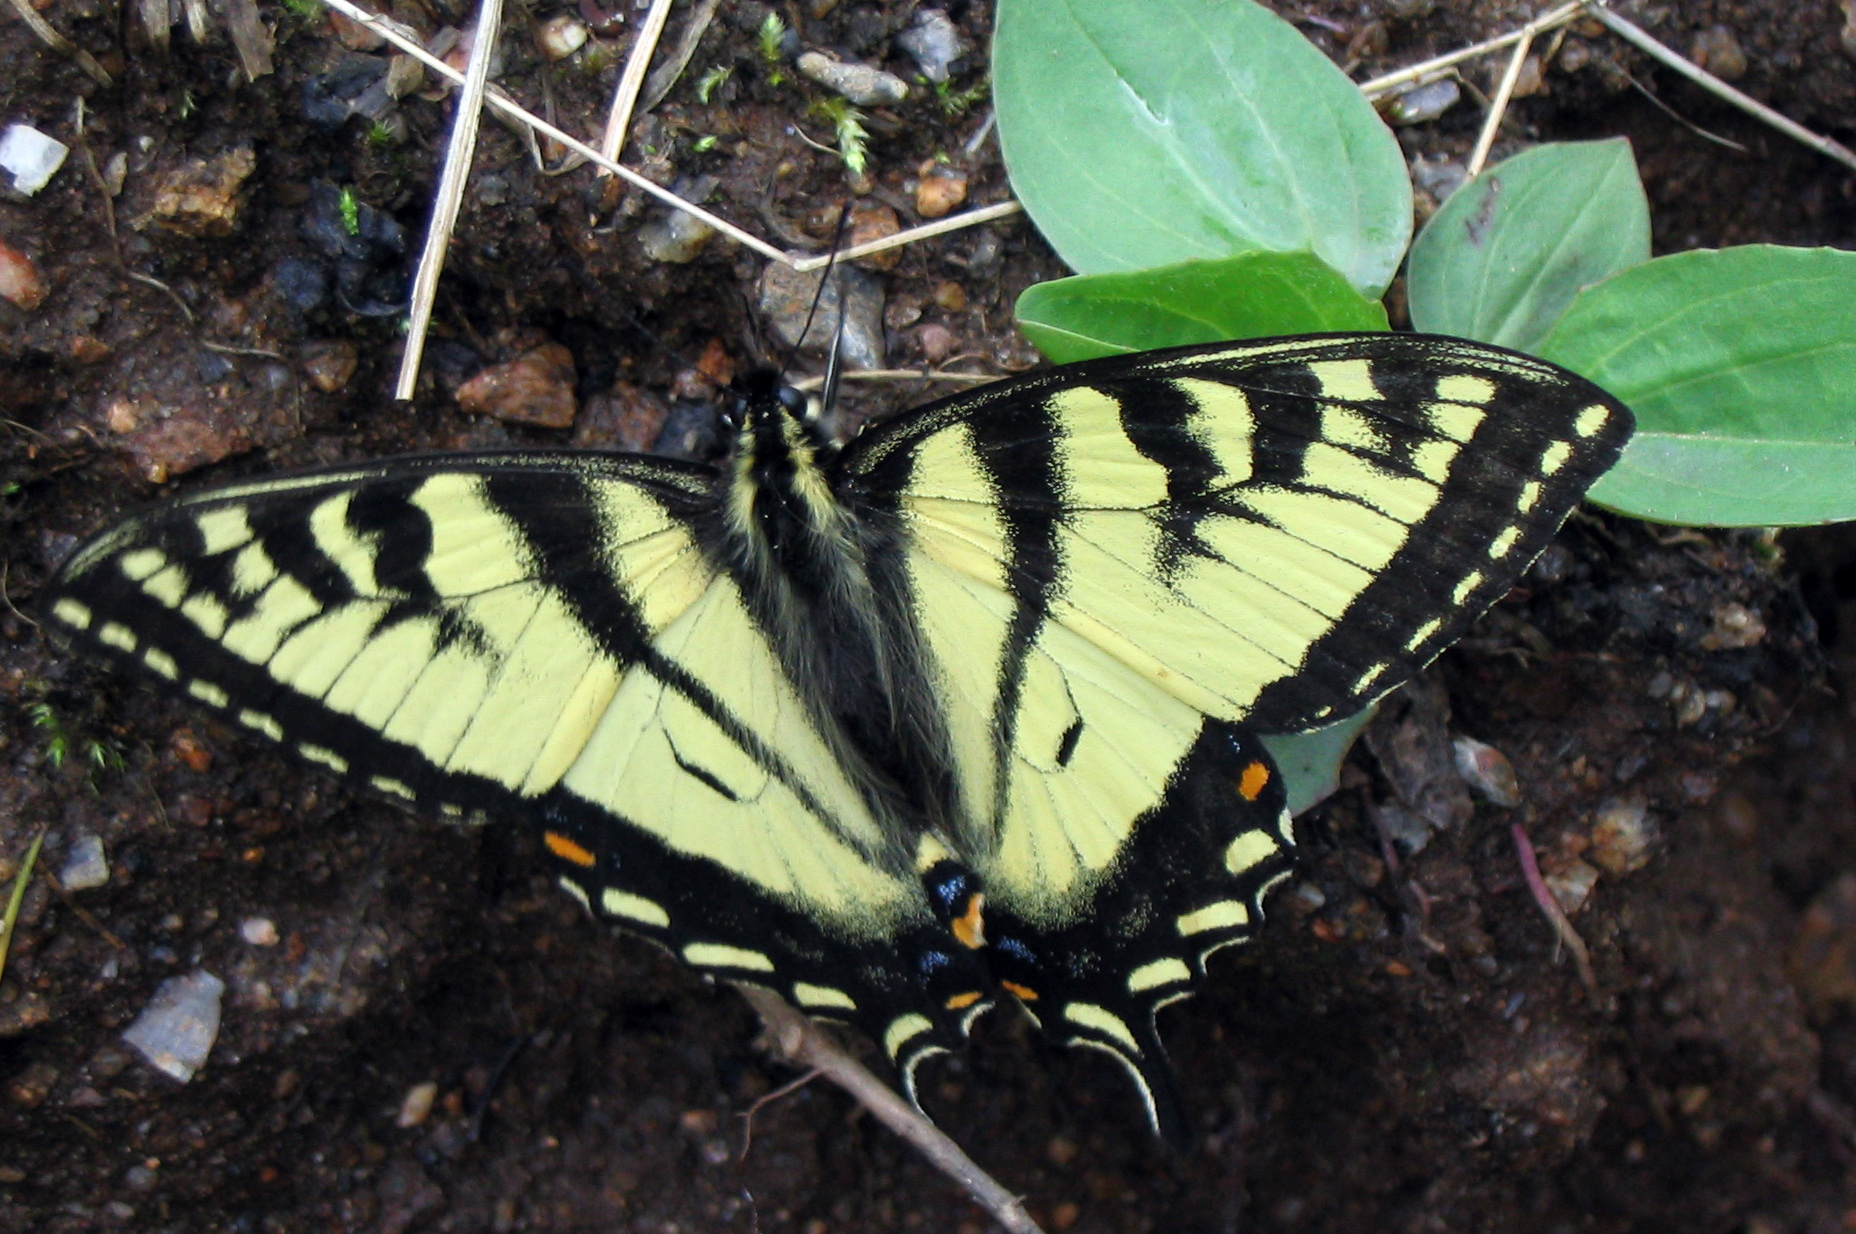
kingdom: Animalia
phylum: Arthropoda
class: Insecta
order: Lepidoptera
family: Papilionidae
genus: Papilio
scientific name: Papilio canadensis
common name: Canadian tiger swallowtail
